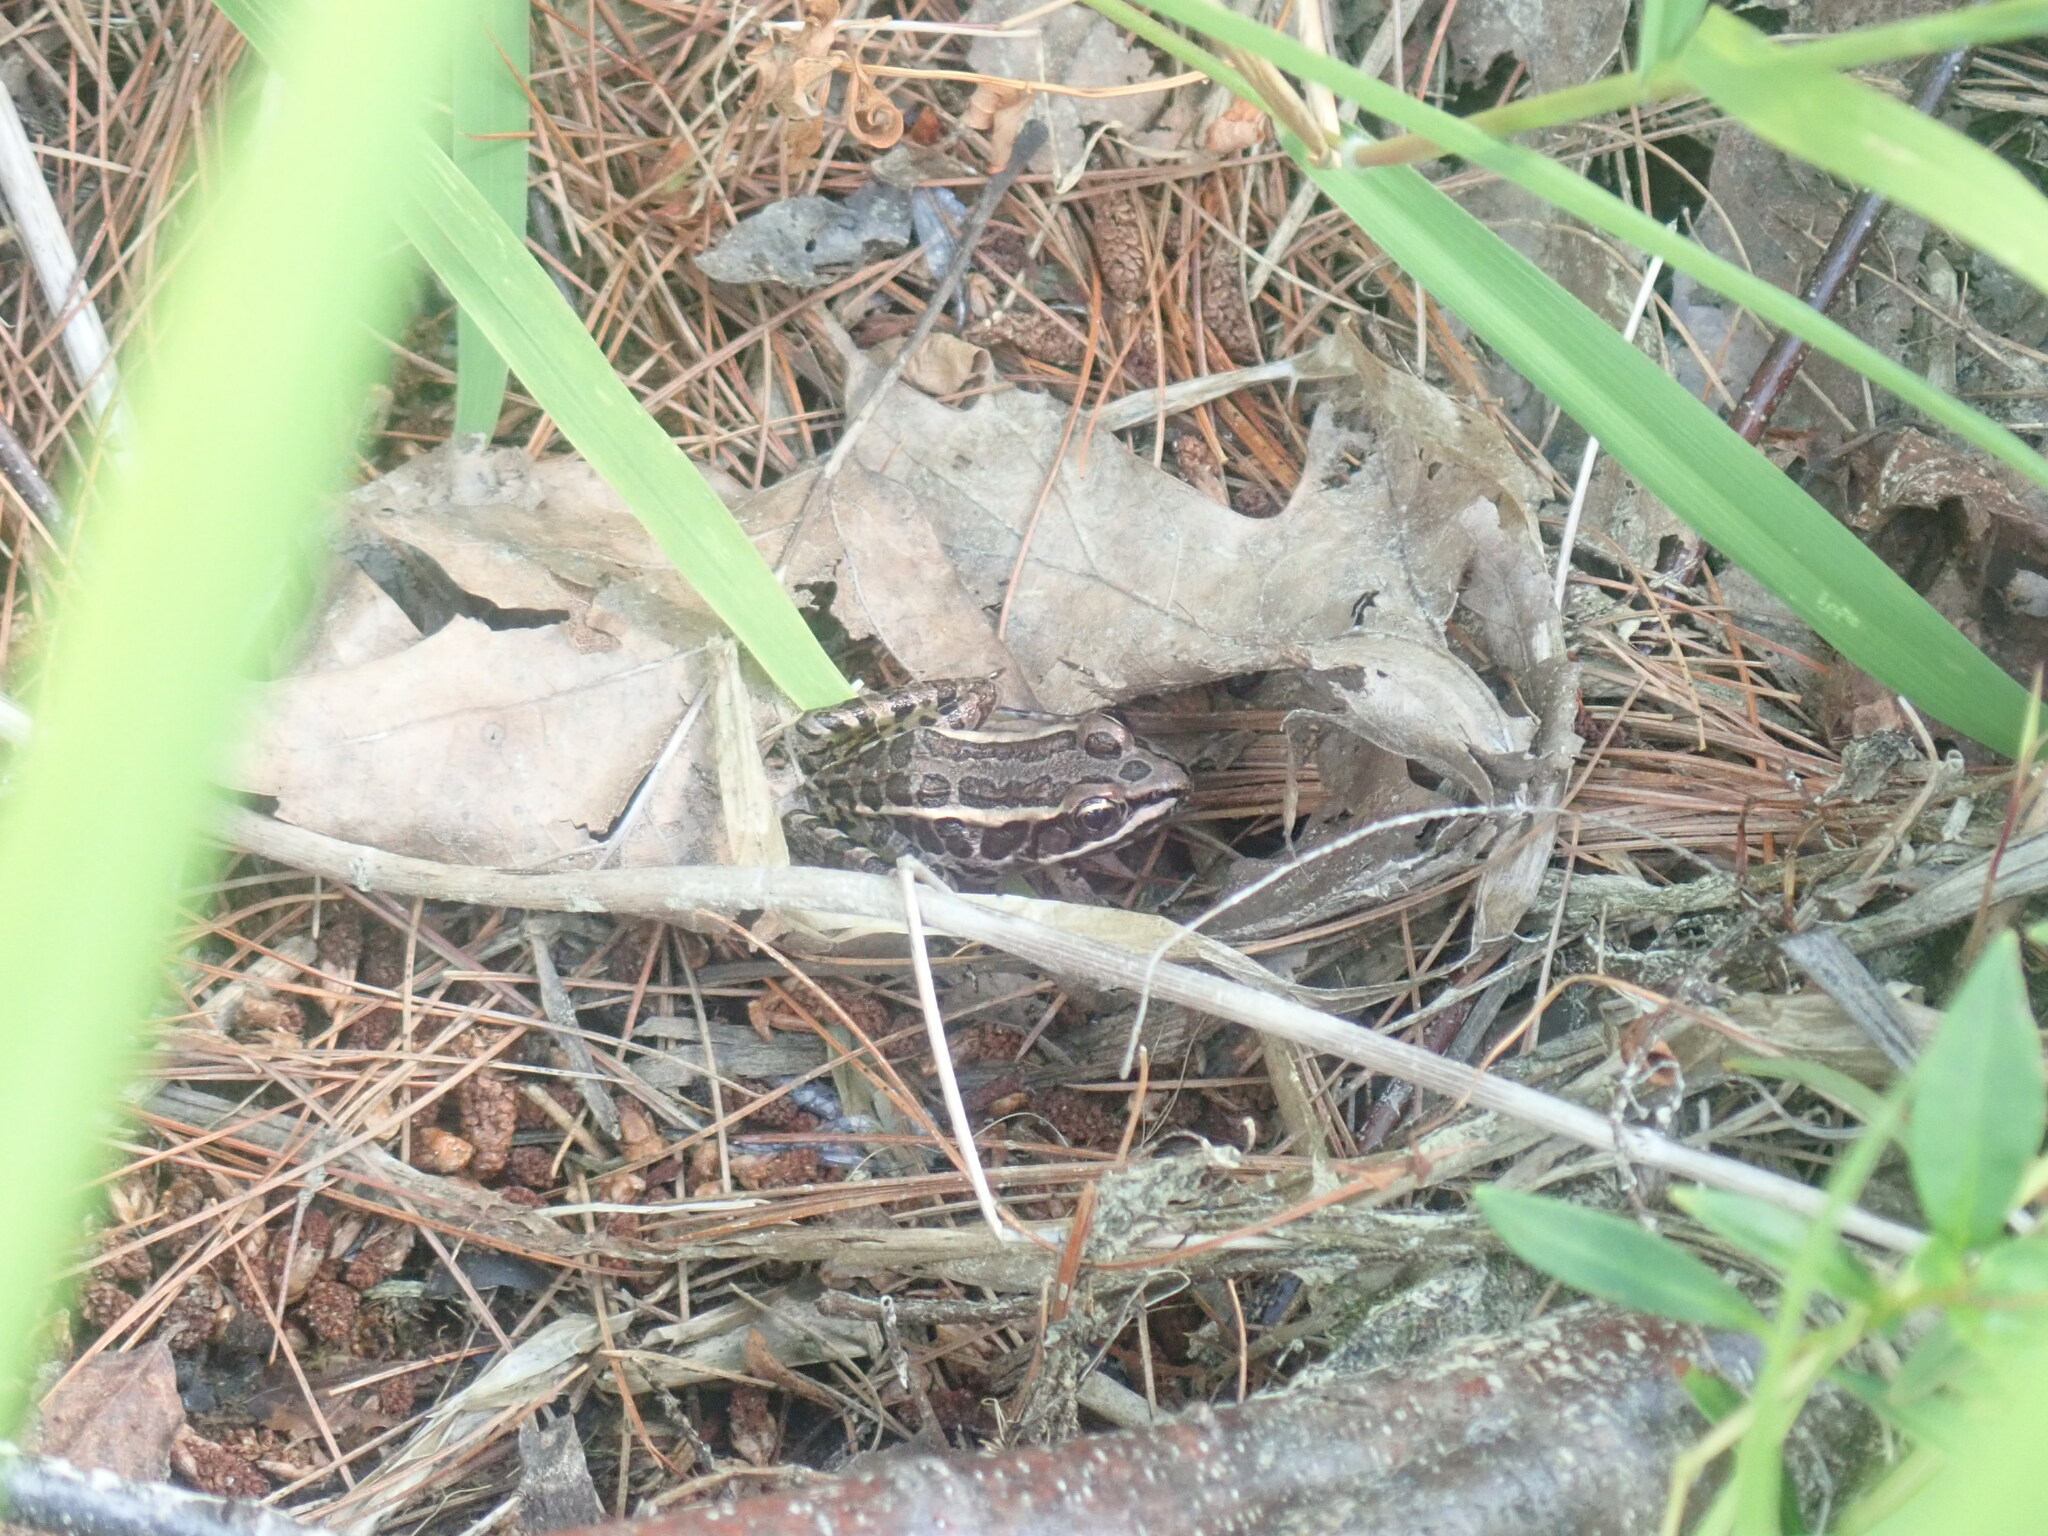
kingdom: Animalia
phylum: Chordata
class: Amphibia
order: Anura
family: Ranidae
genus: Lithobates
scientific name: Lithobates palustris
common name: Pickerel frog
